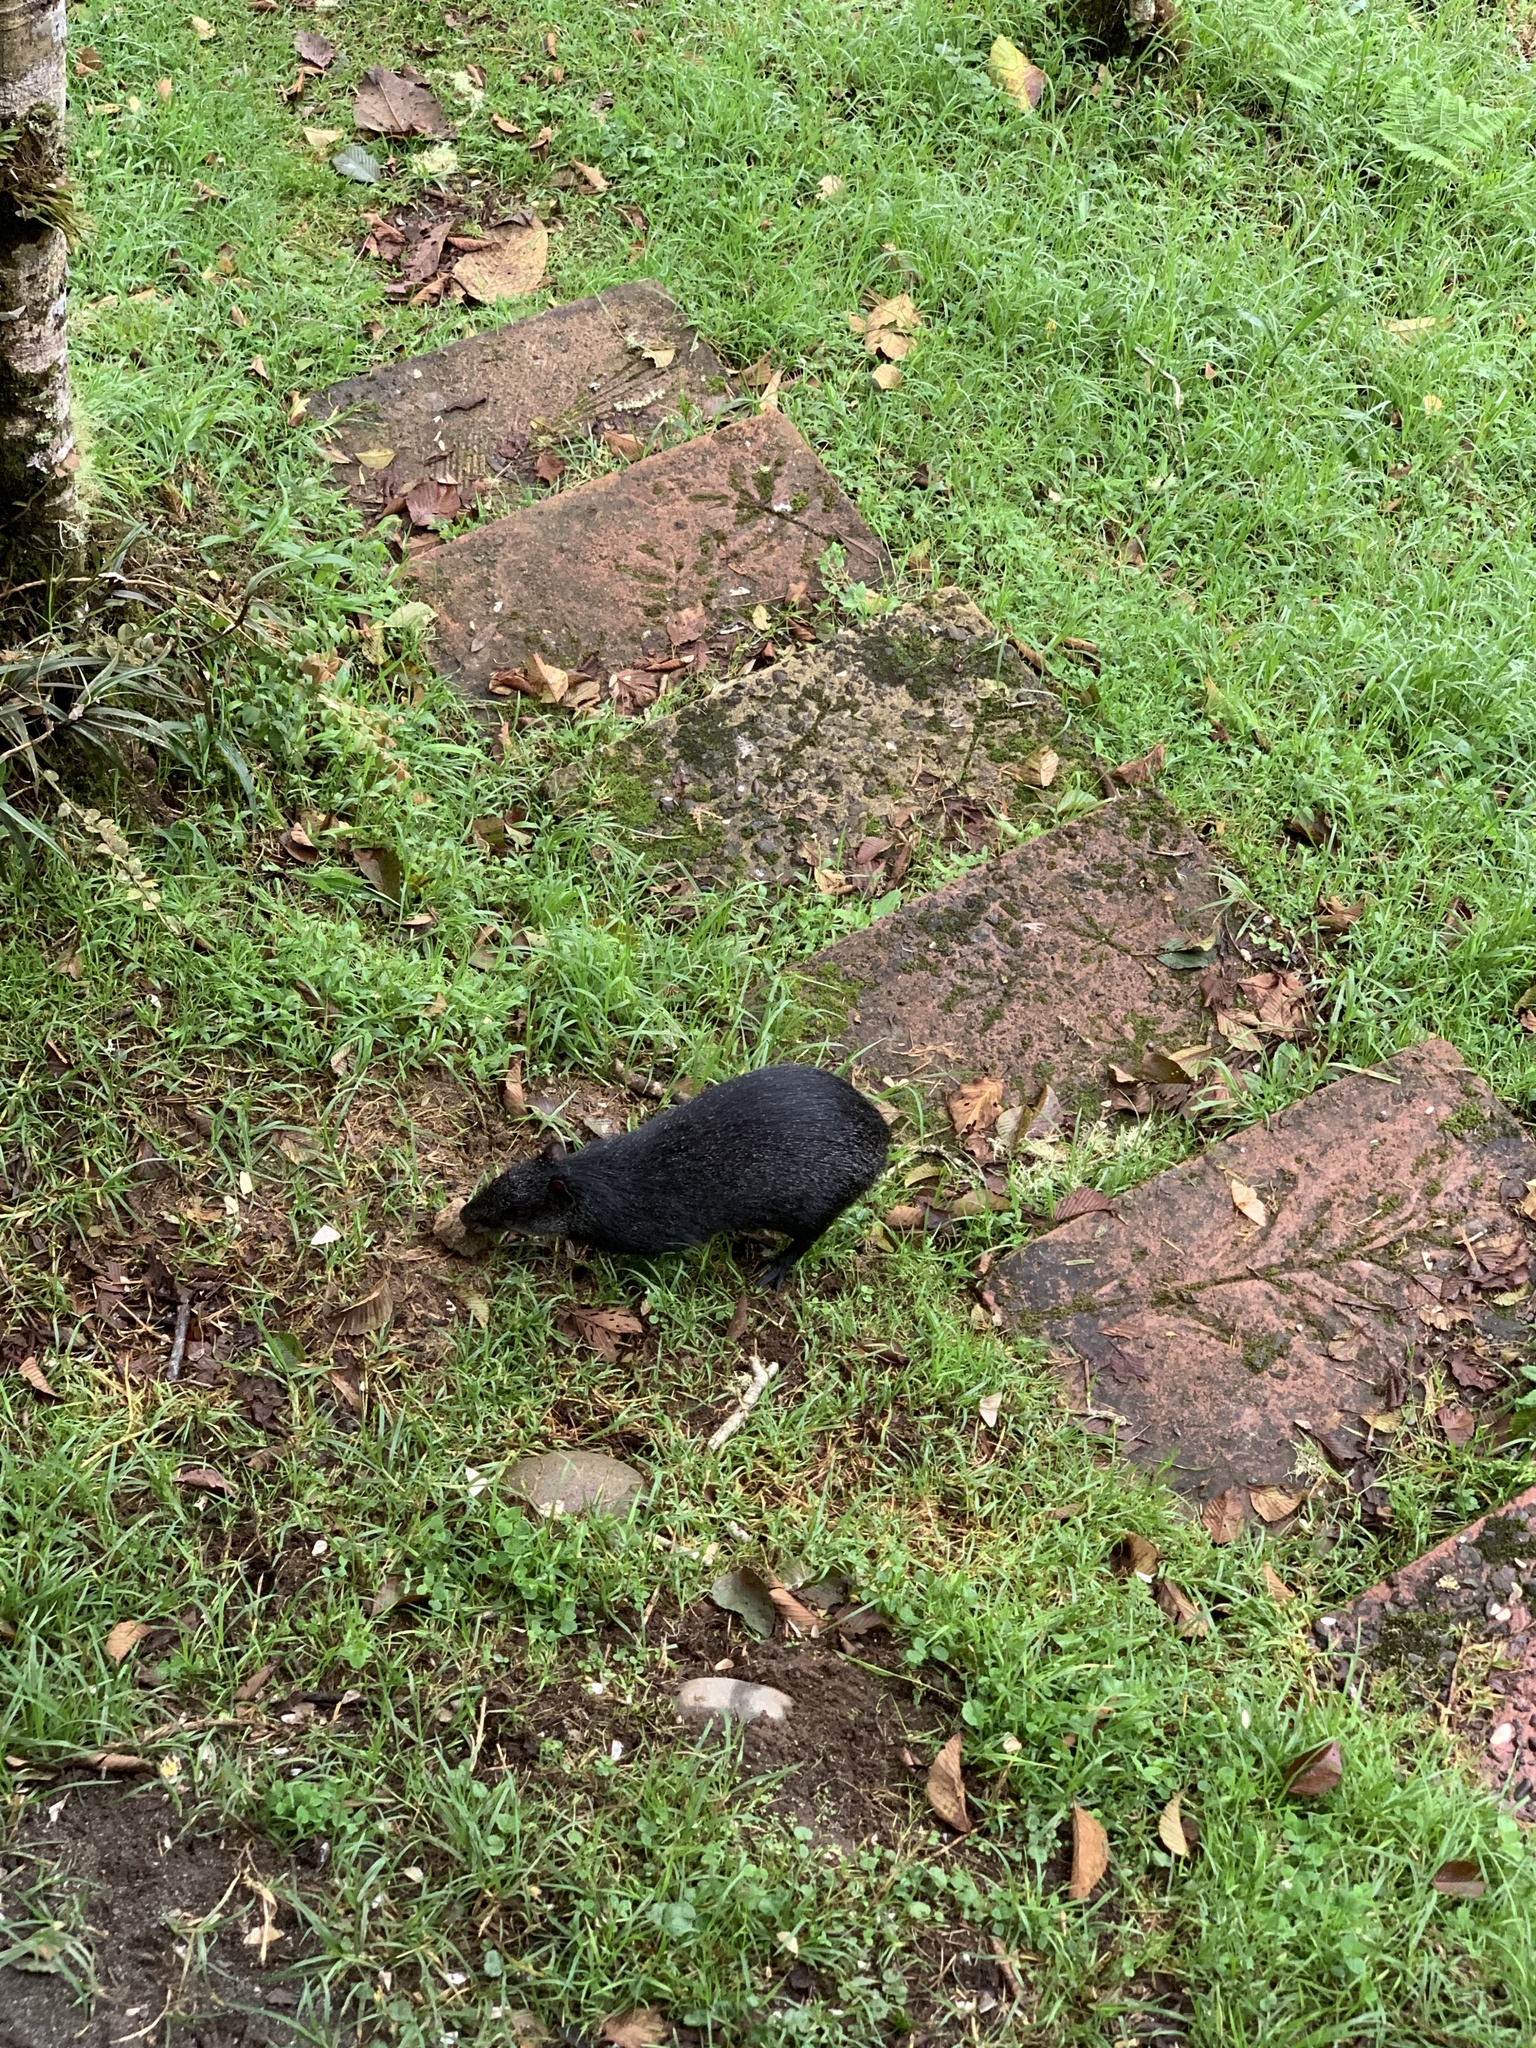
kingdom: Animalia
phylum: Chordata
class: Mammalia
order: Rodentia
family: Dasyproctidae
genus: Dasyprocta
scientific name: Dasyprocta fuliginosa
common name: Black agouti
